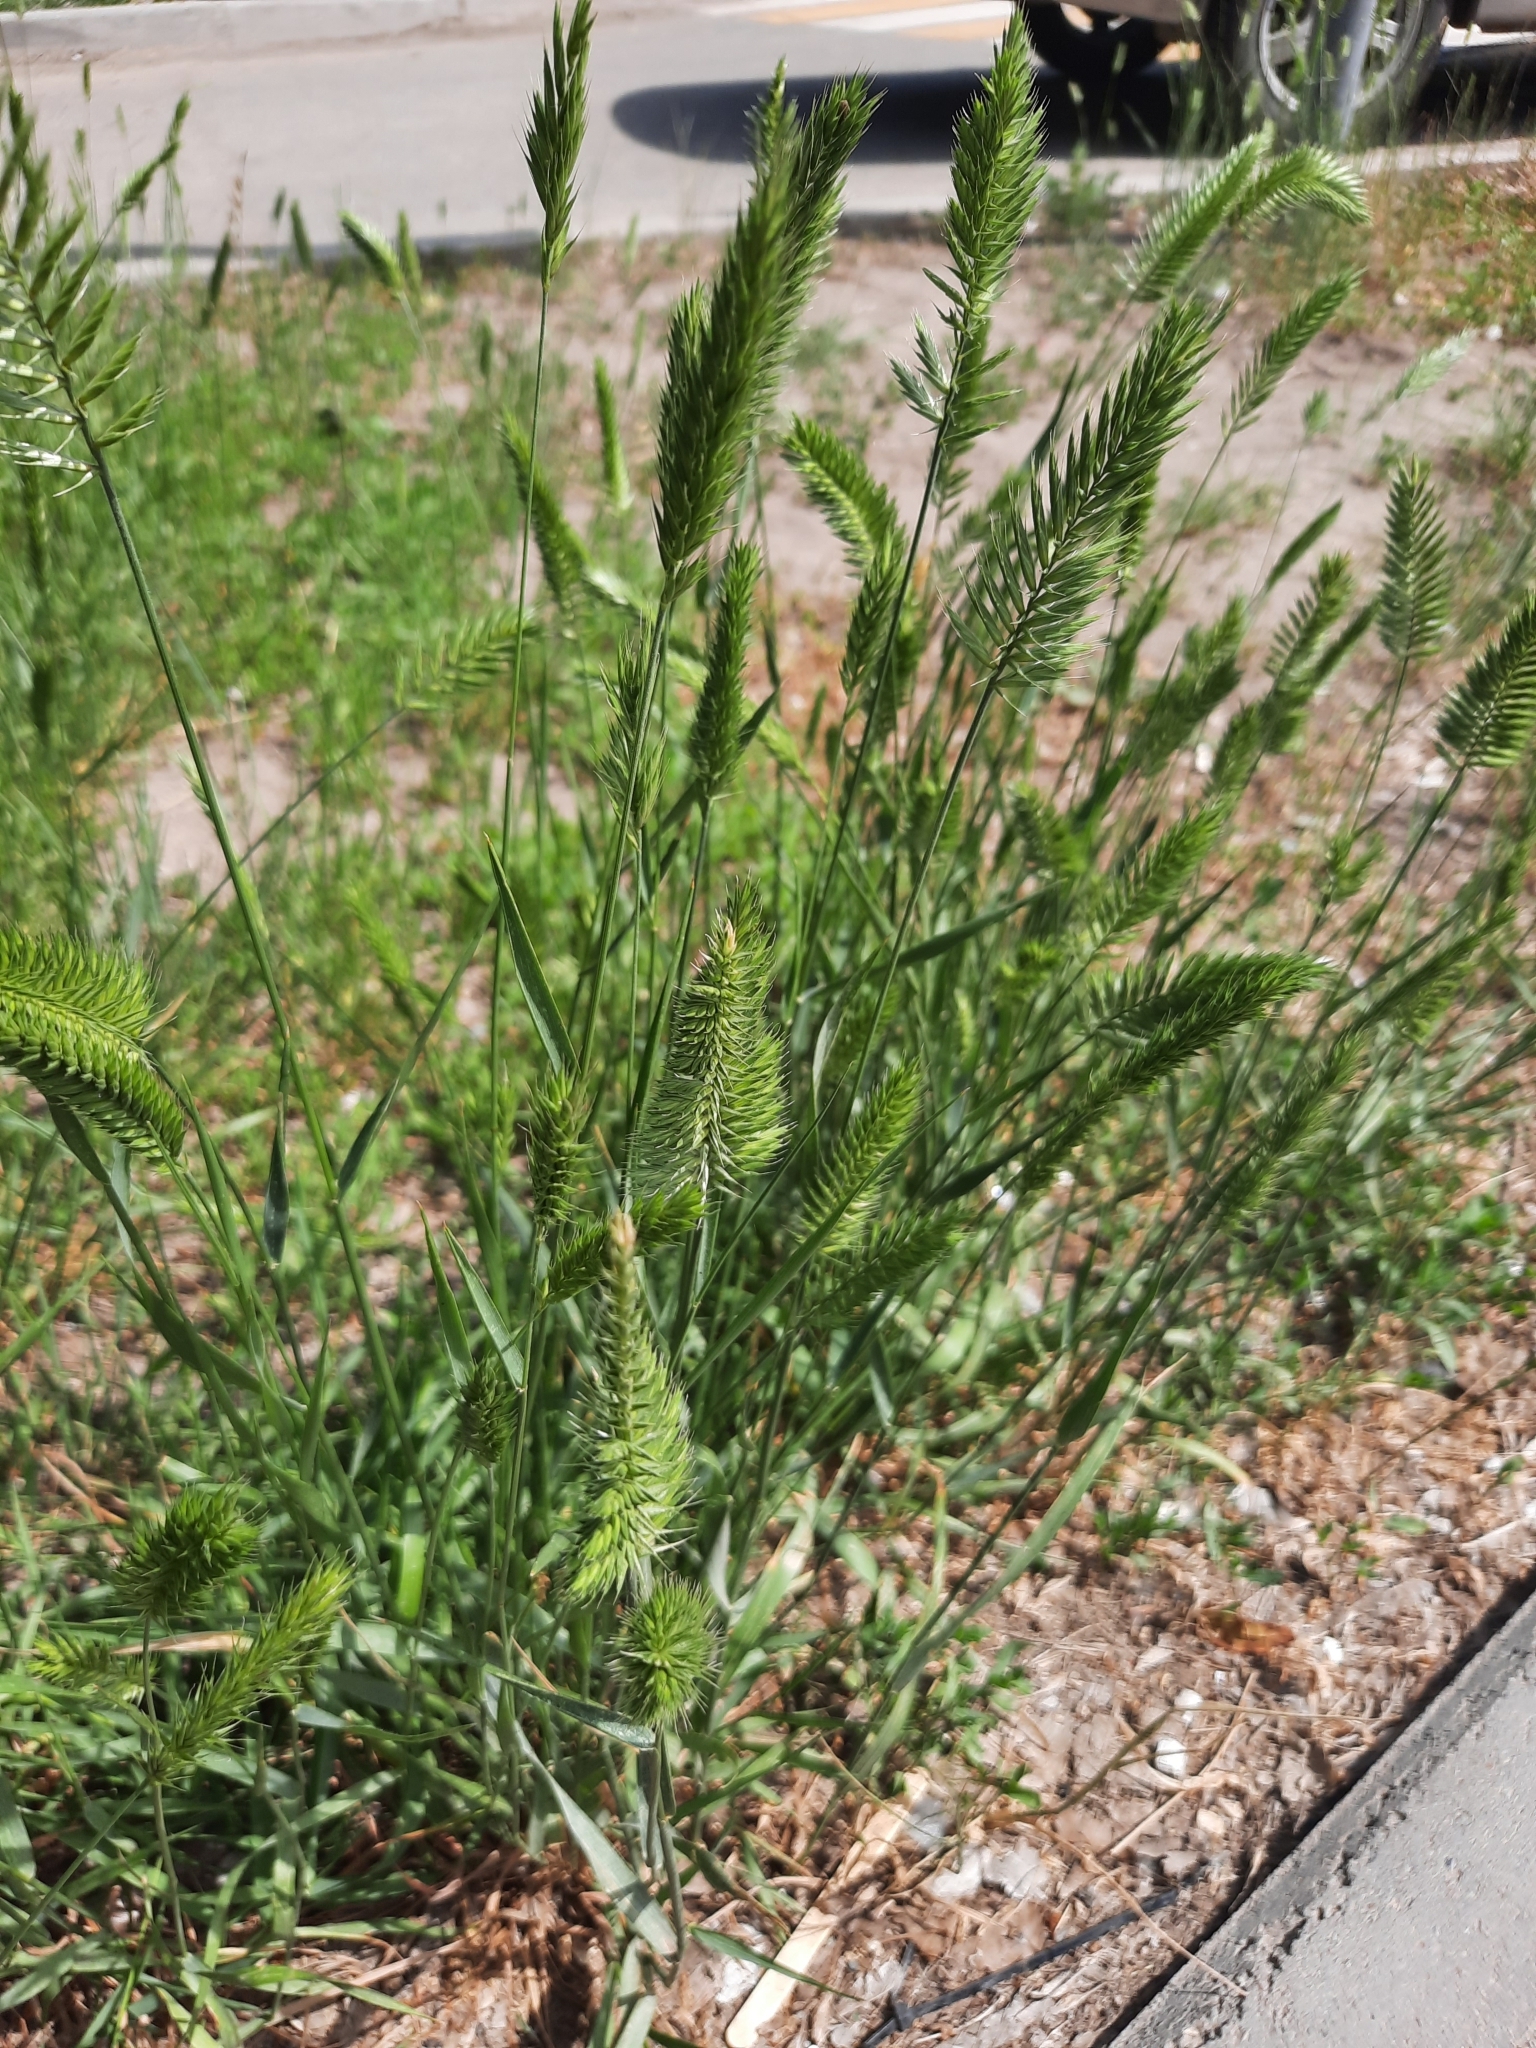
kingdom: Plantae
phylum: Tracheophyta
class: Liliopsida
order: Poales
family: Poaceae
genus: Agropyron
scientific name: Agropyron cristatum
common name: Crested wheatgrass
